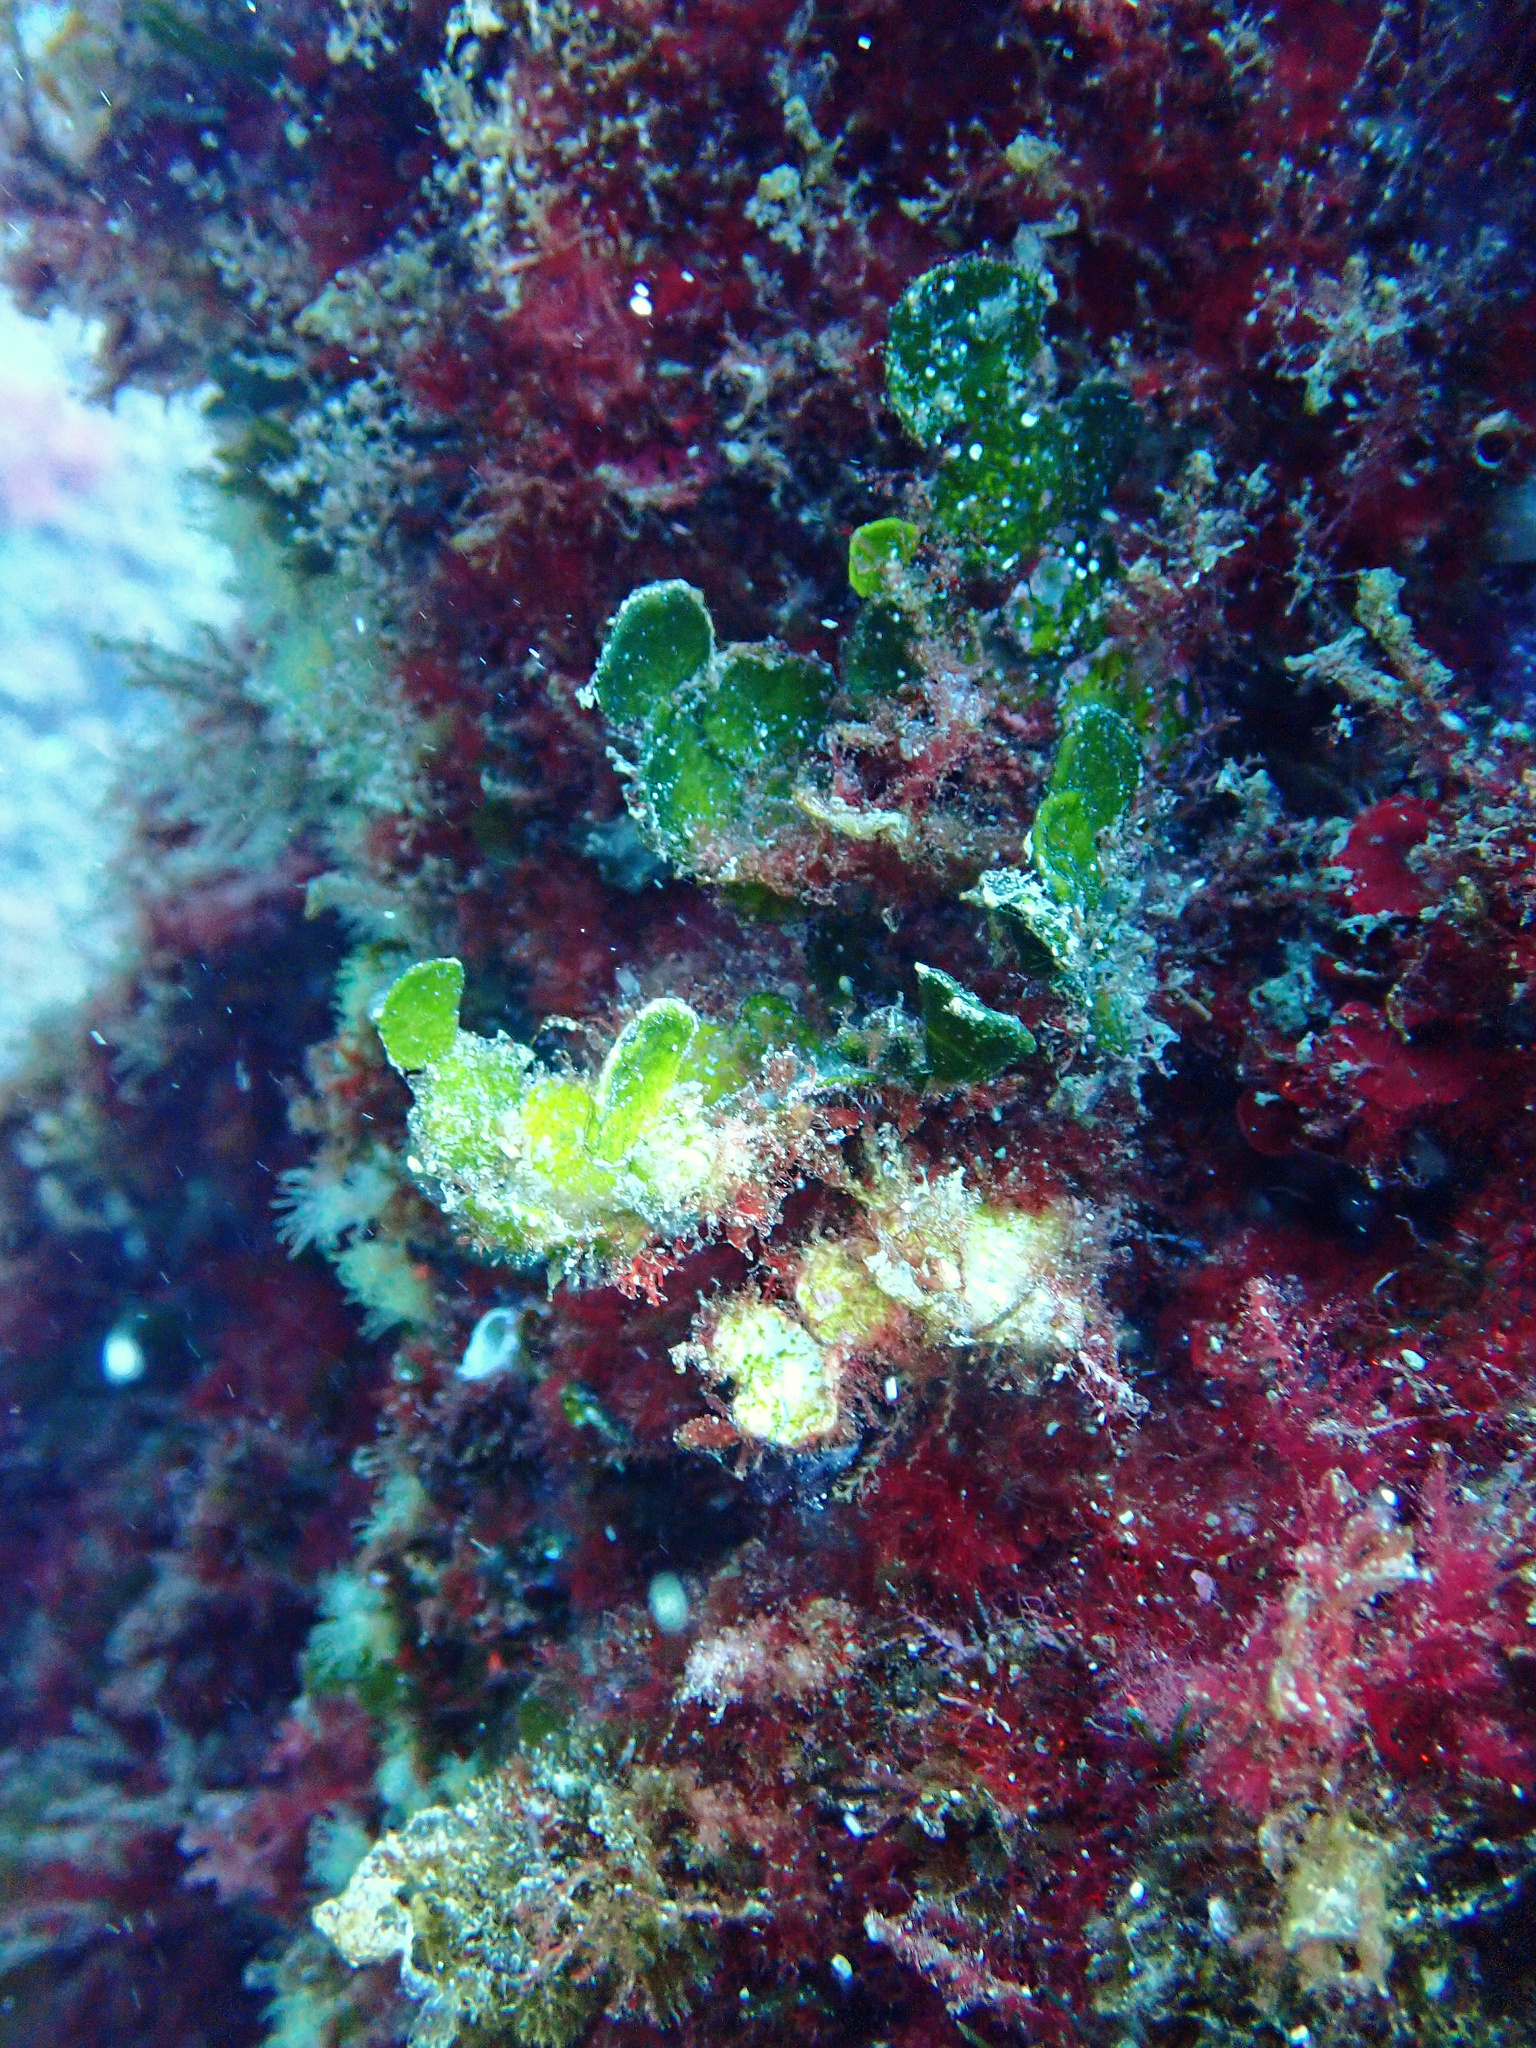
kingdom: Plantae
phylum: Chlorophyta
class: Ulvophyceae
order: Bryopsidales
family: Halimedaceae
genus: Halimeda
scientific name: Halimeda tuna
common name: Stalked lettuce leaf algae
